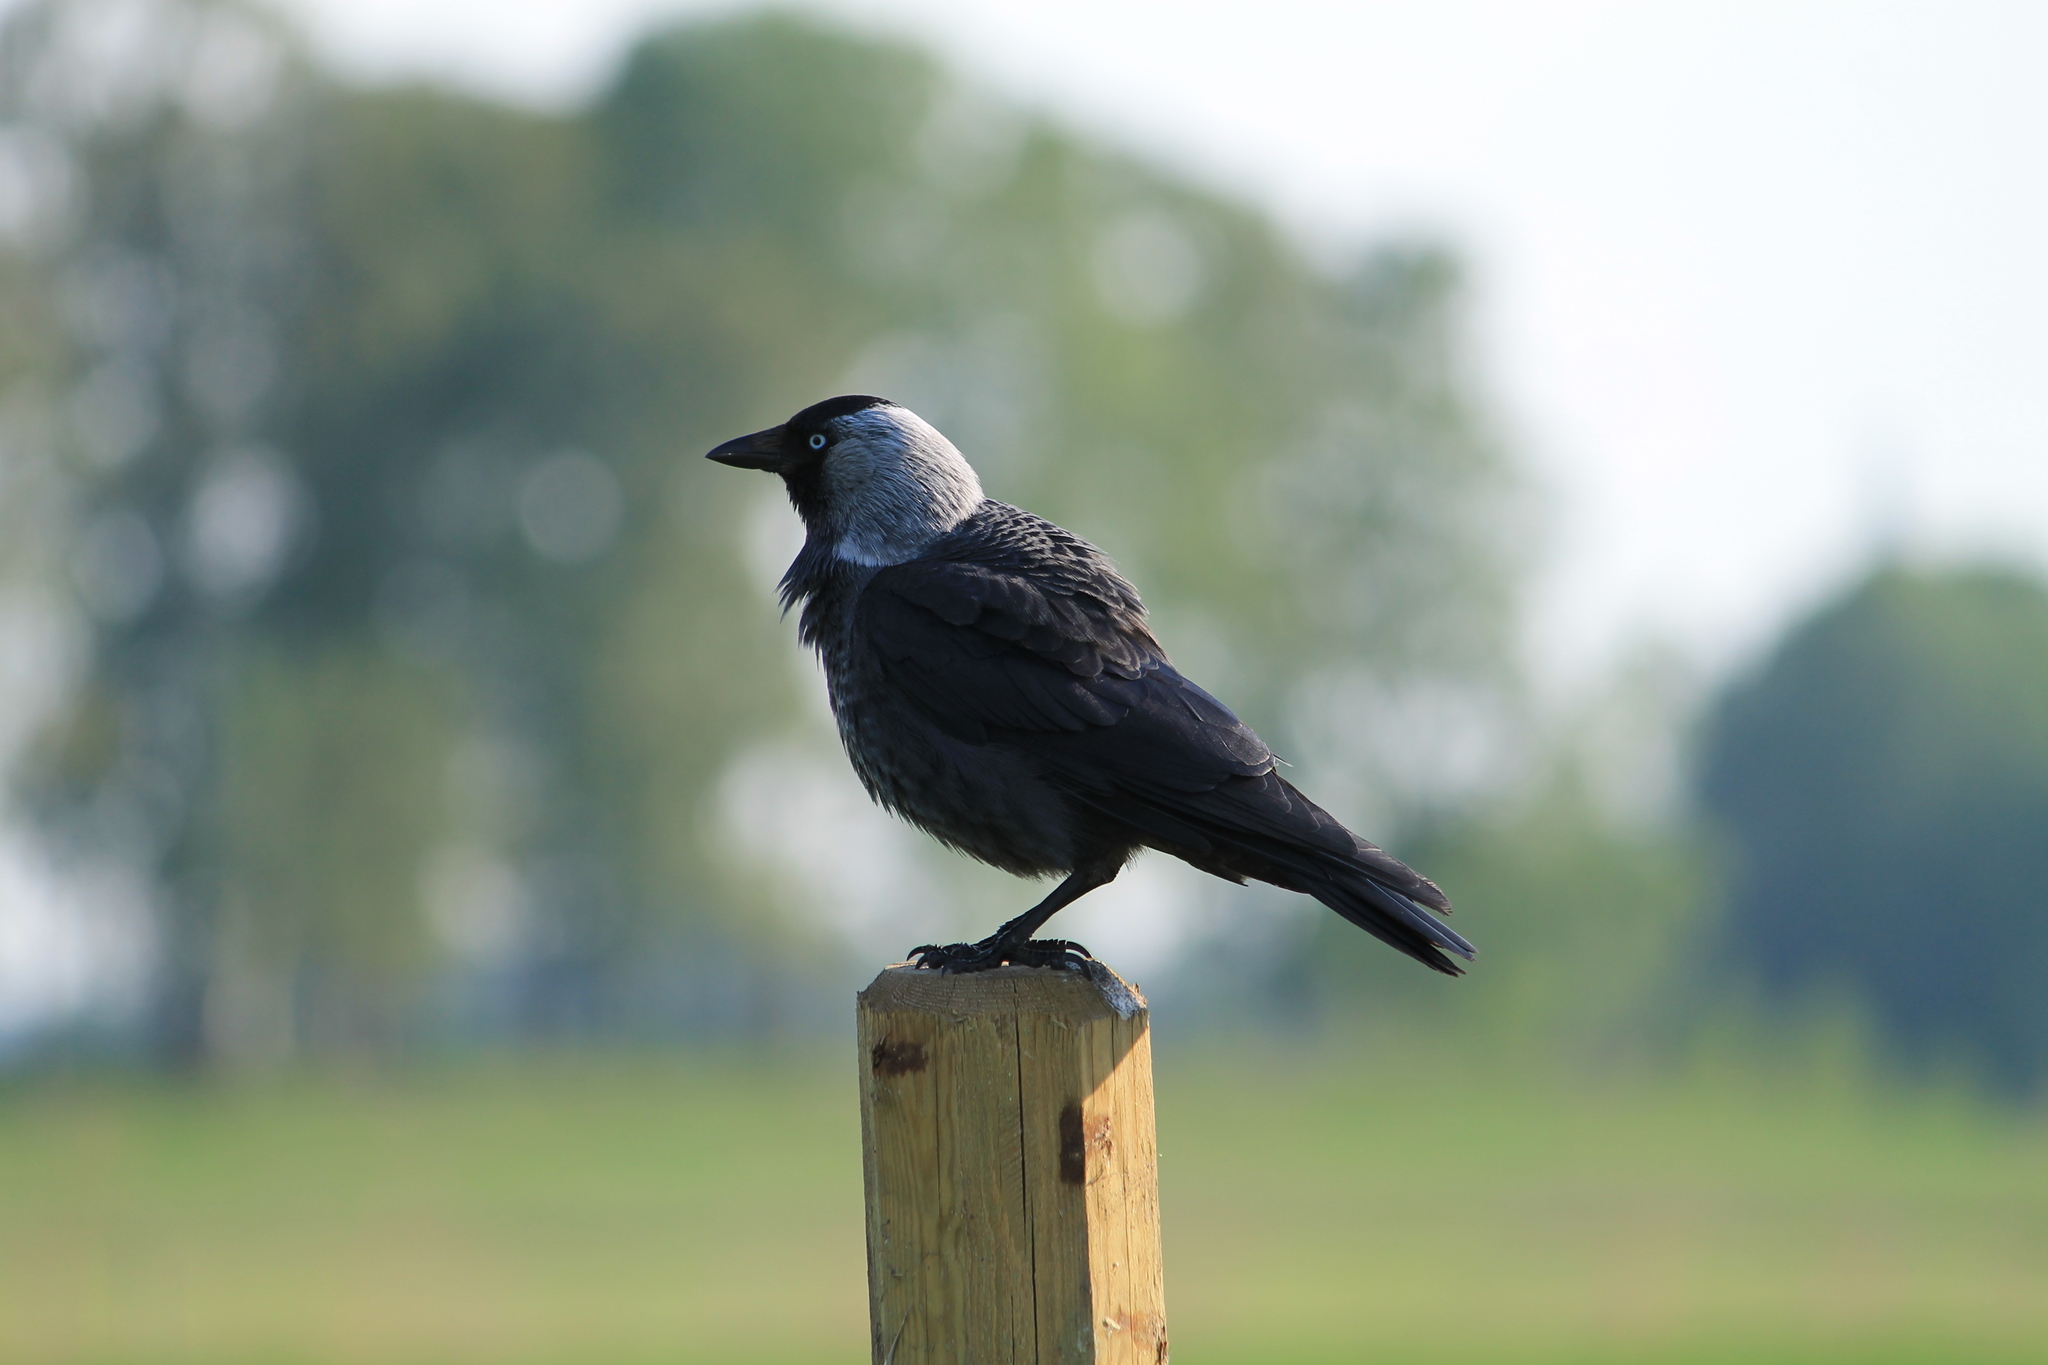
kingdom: Animalia
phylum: Chordata
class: Aves
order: Passeriformes
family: Corvidae
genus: Coloeus
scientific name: Coloeus monedula
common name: Western jackdaw
